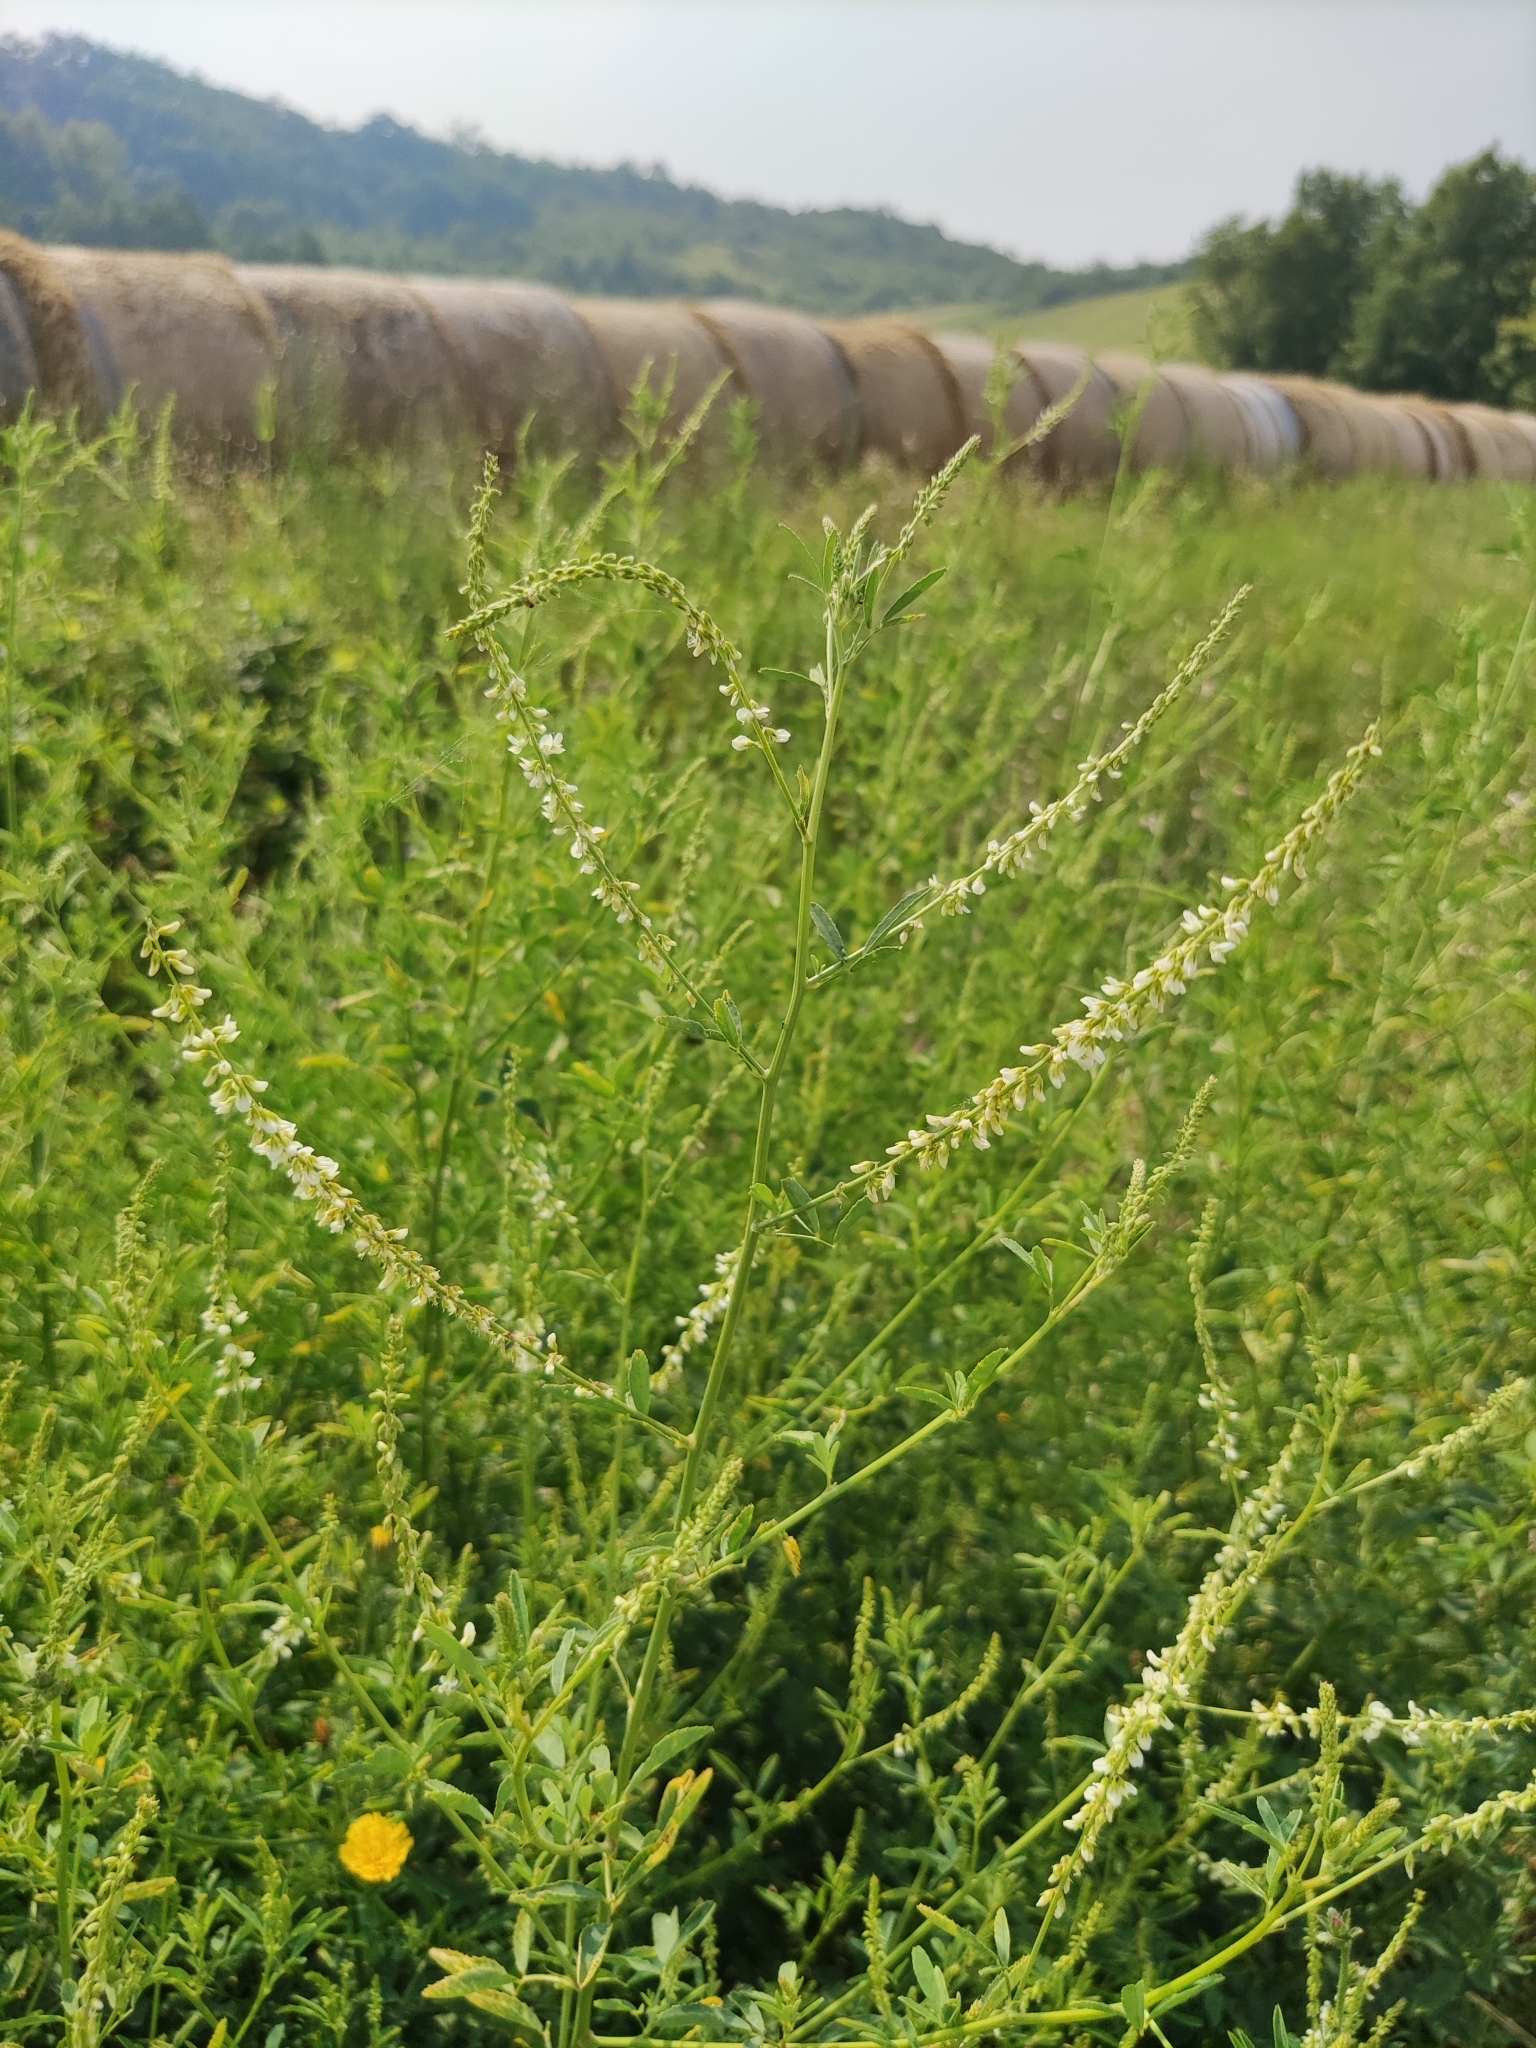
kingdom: Plantae
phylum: Tracheophyta
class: Magnoliopsida
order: Fabales
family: Fabaceae
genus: Melilotus
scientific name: Melilotus albus
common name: White melilot
